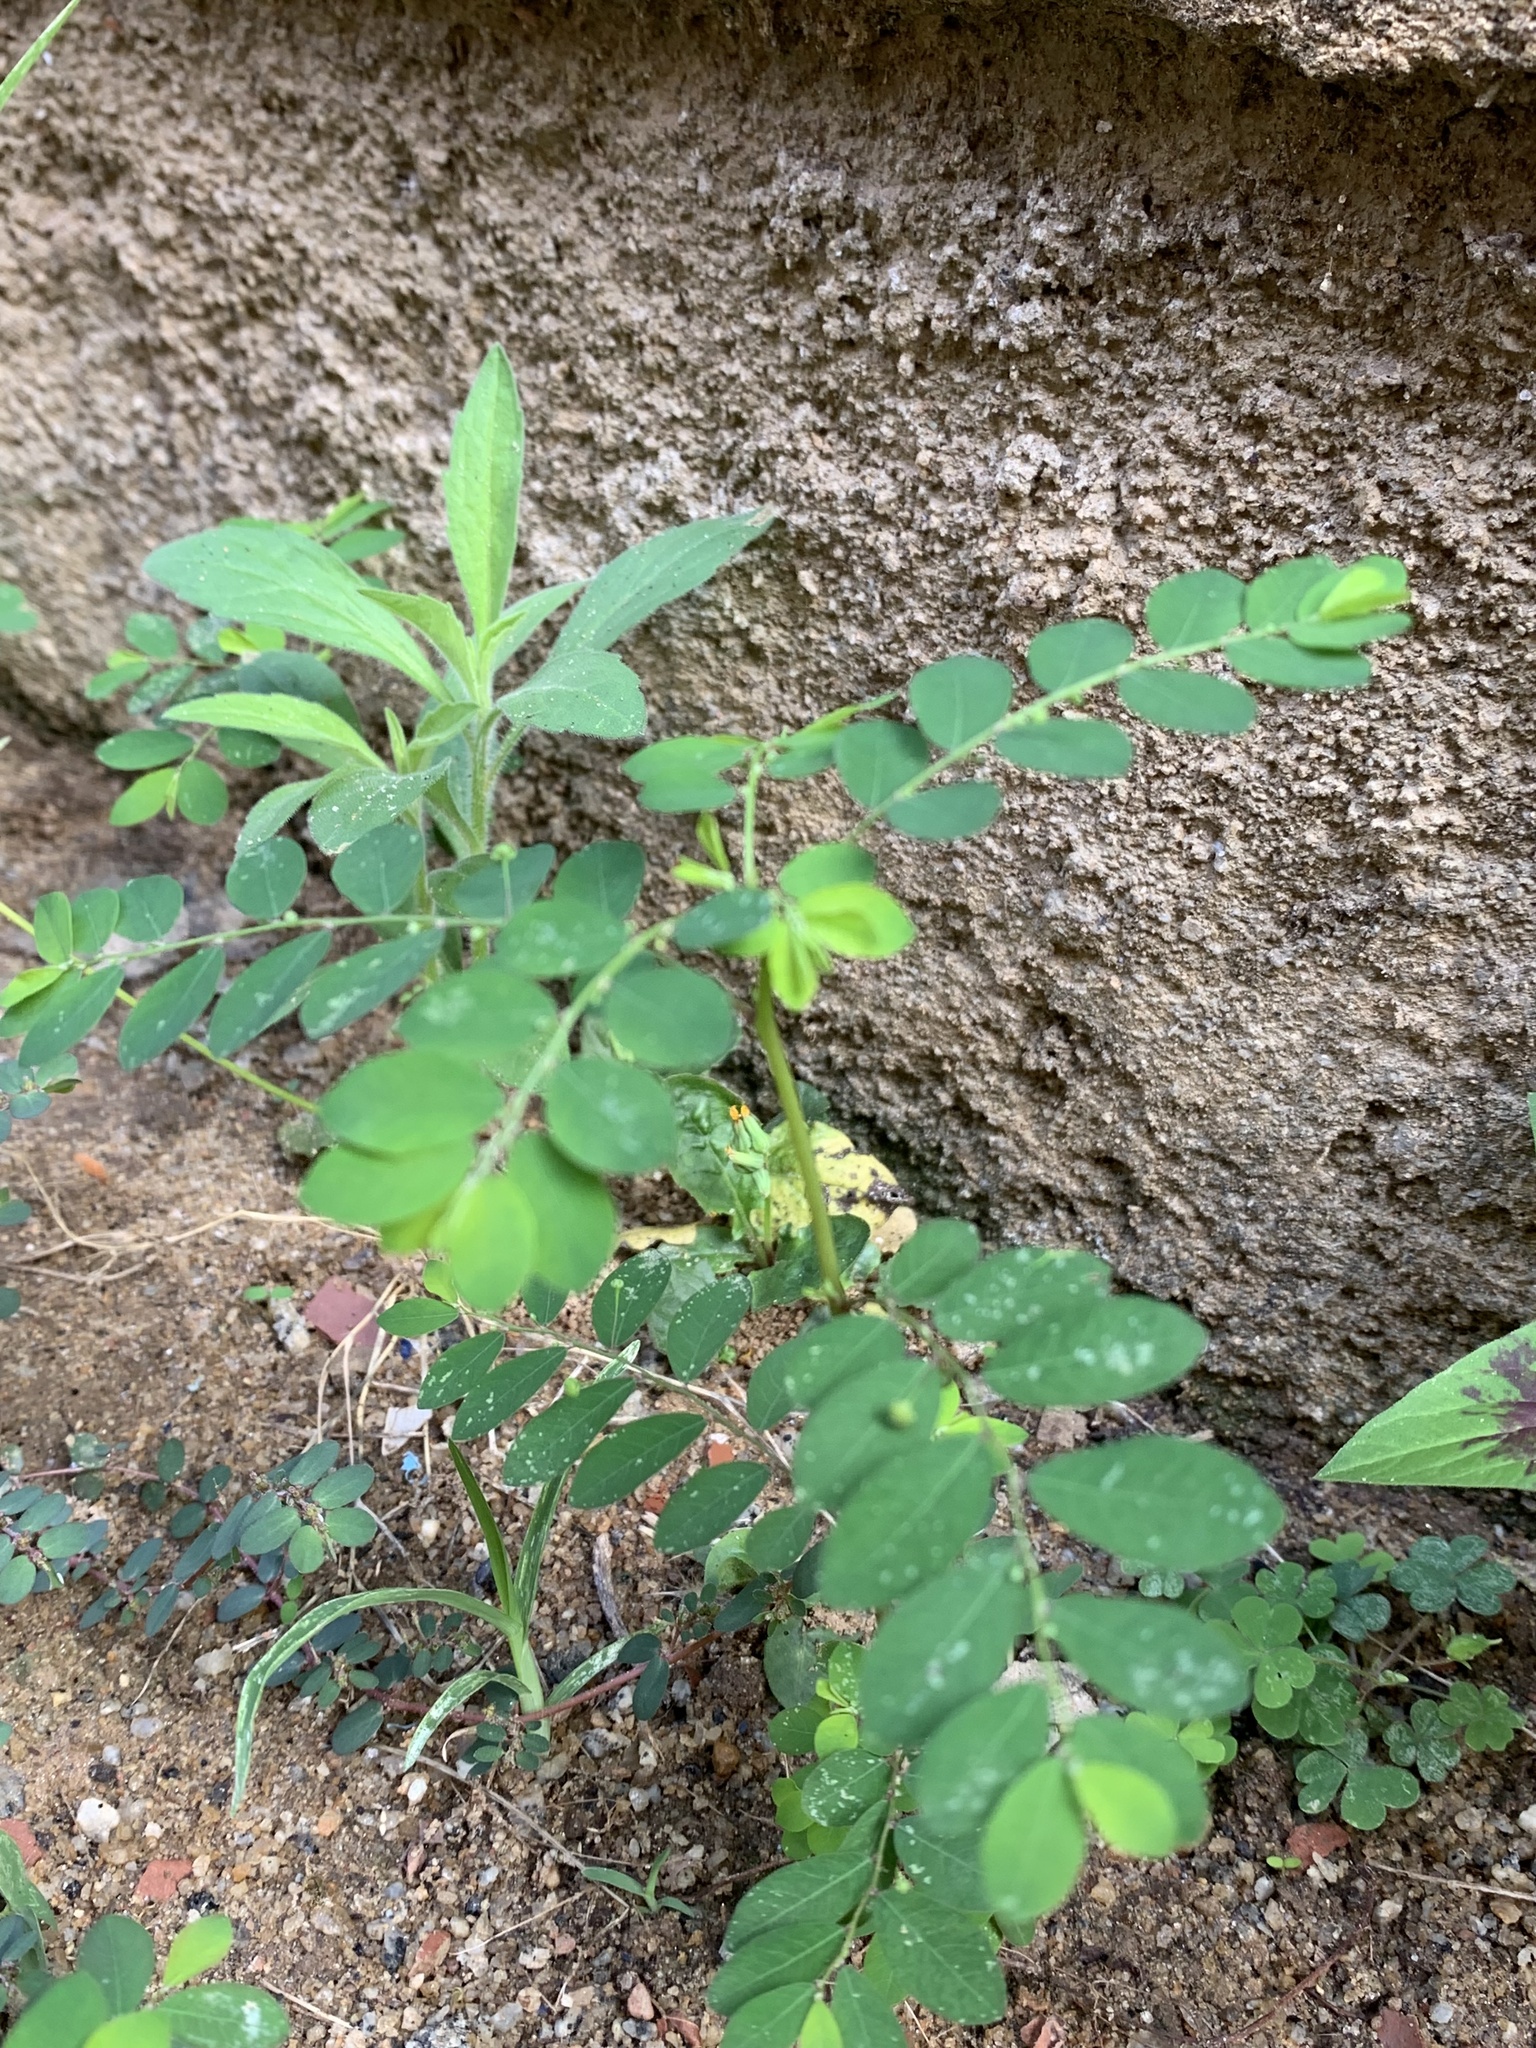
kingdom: Plantae
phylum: Tracheophyta
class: Magnoliopsida
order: Malpighiales
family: Phyllanthaceae
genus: Phyllanthus
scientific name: Phyllanthus tenellus
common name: Mascarene island leaf-flower
